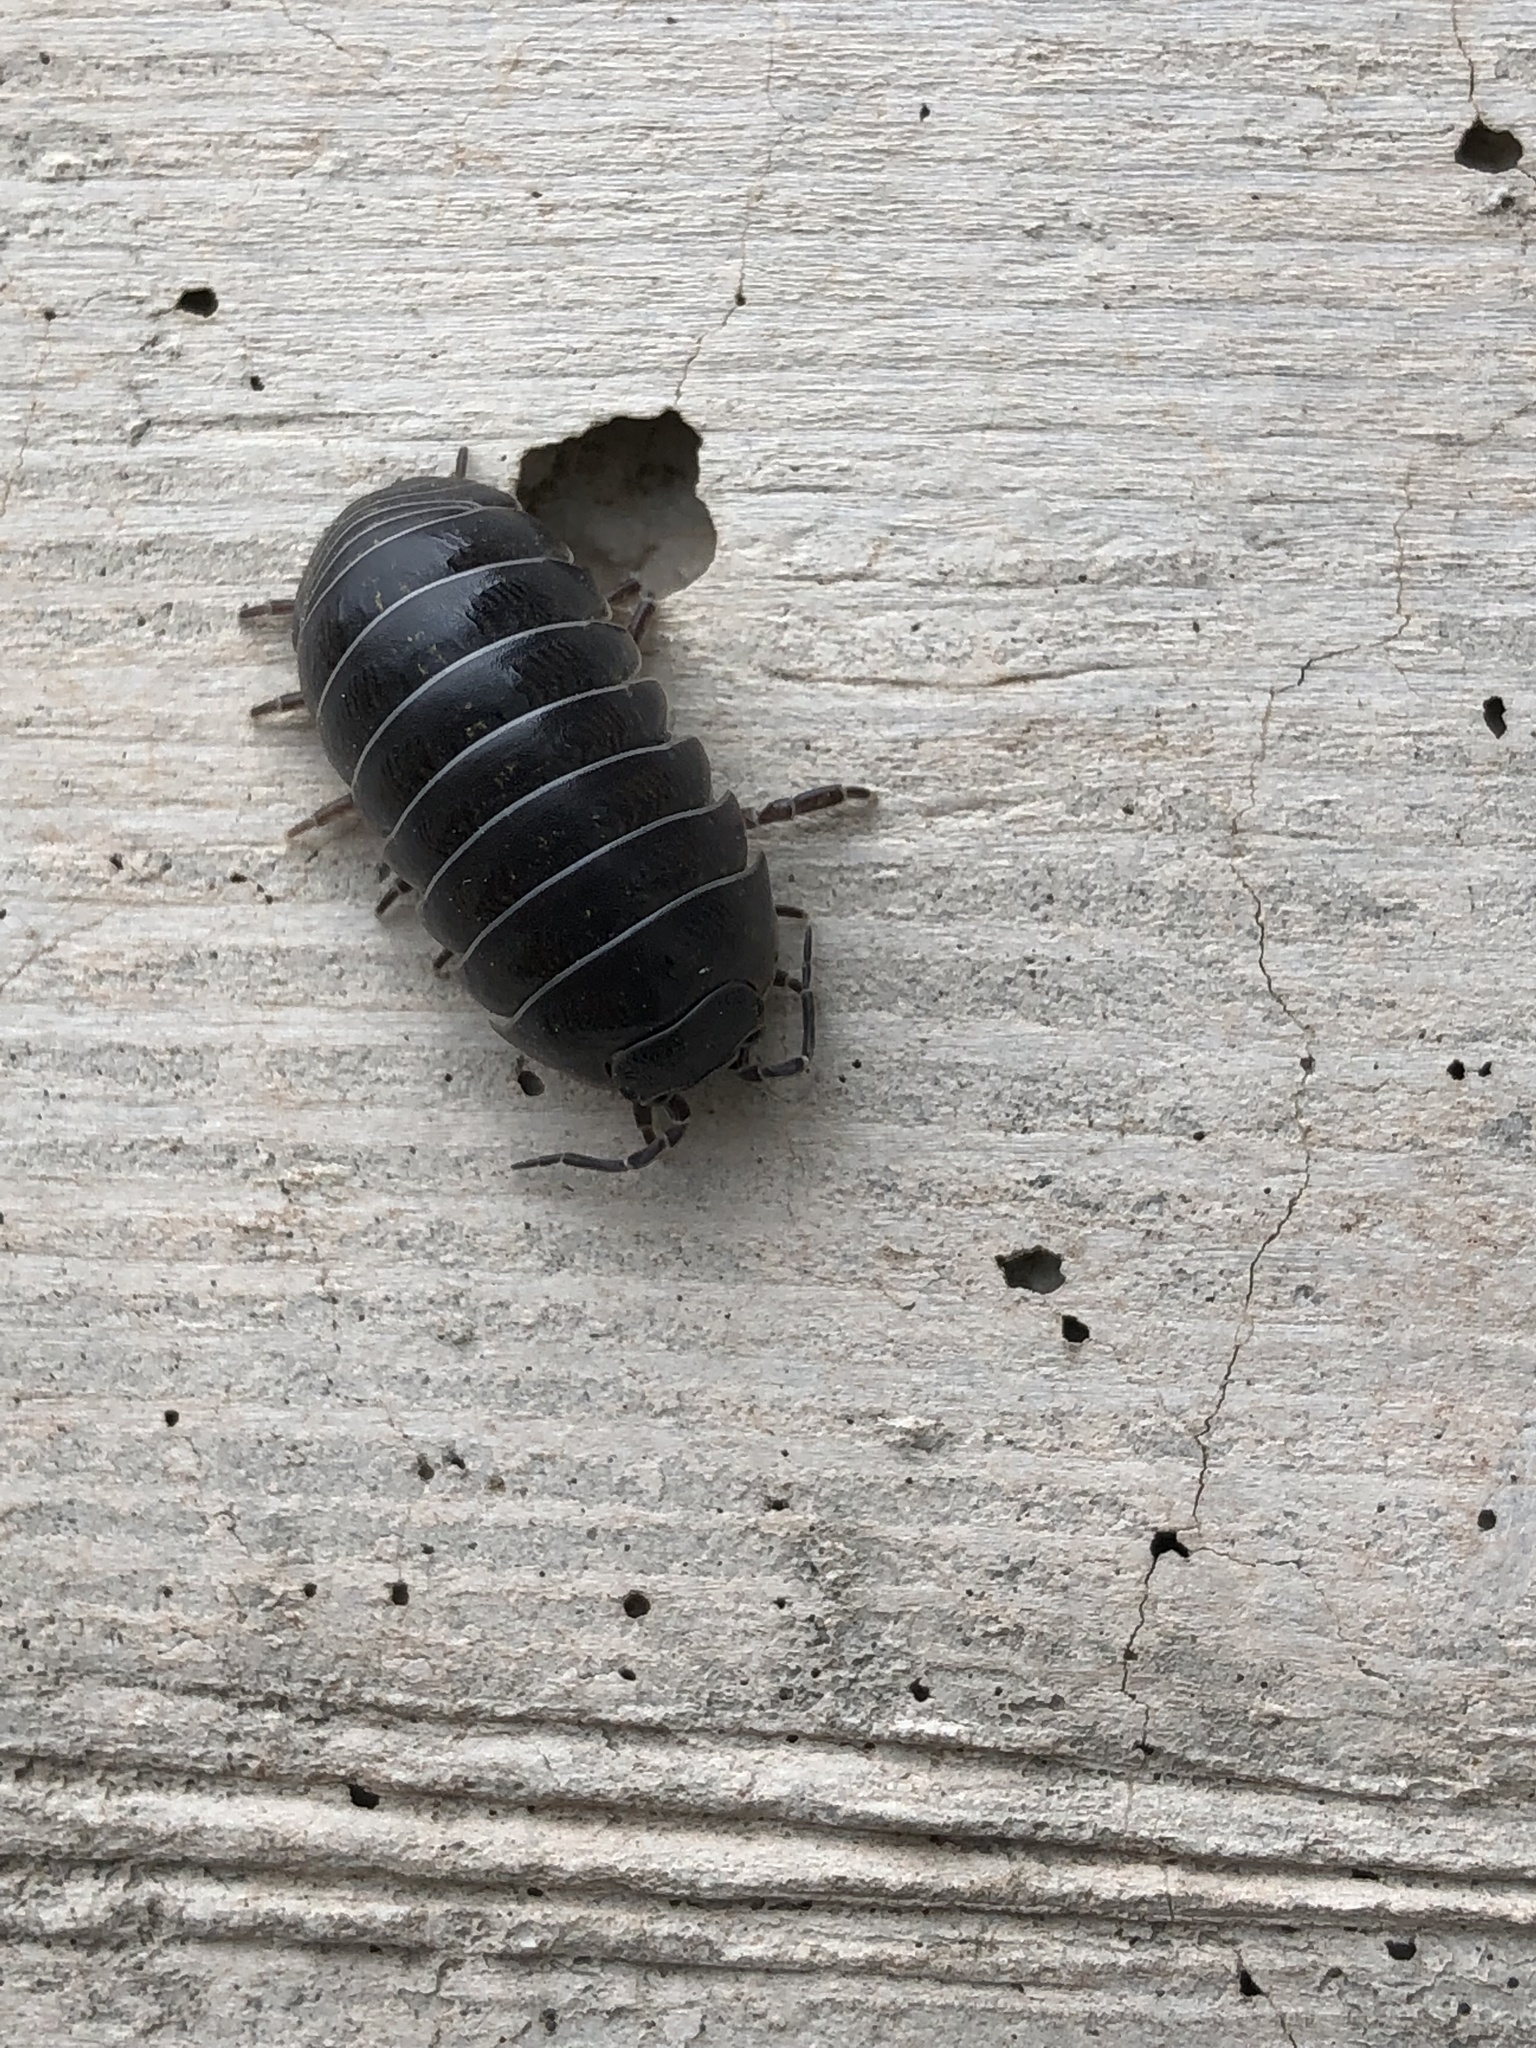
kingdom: Animalia
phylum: Arthropoda
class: Malacostraca
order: Isopoda
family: Armadillidiidae
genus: Armadillidium
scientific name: Armadillidium vulgare
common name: Common pill woodlouse
